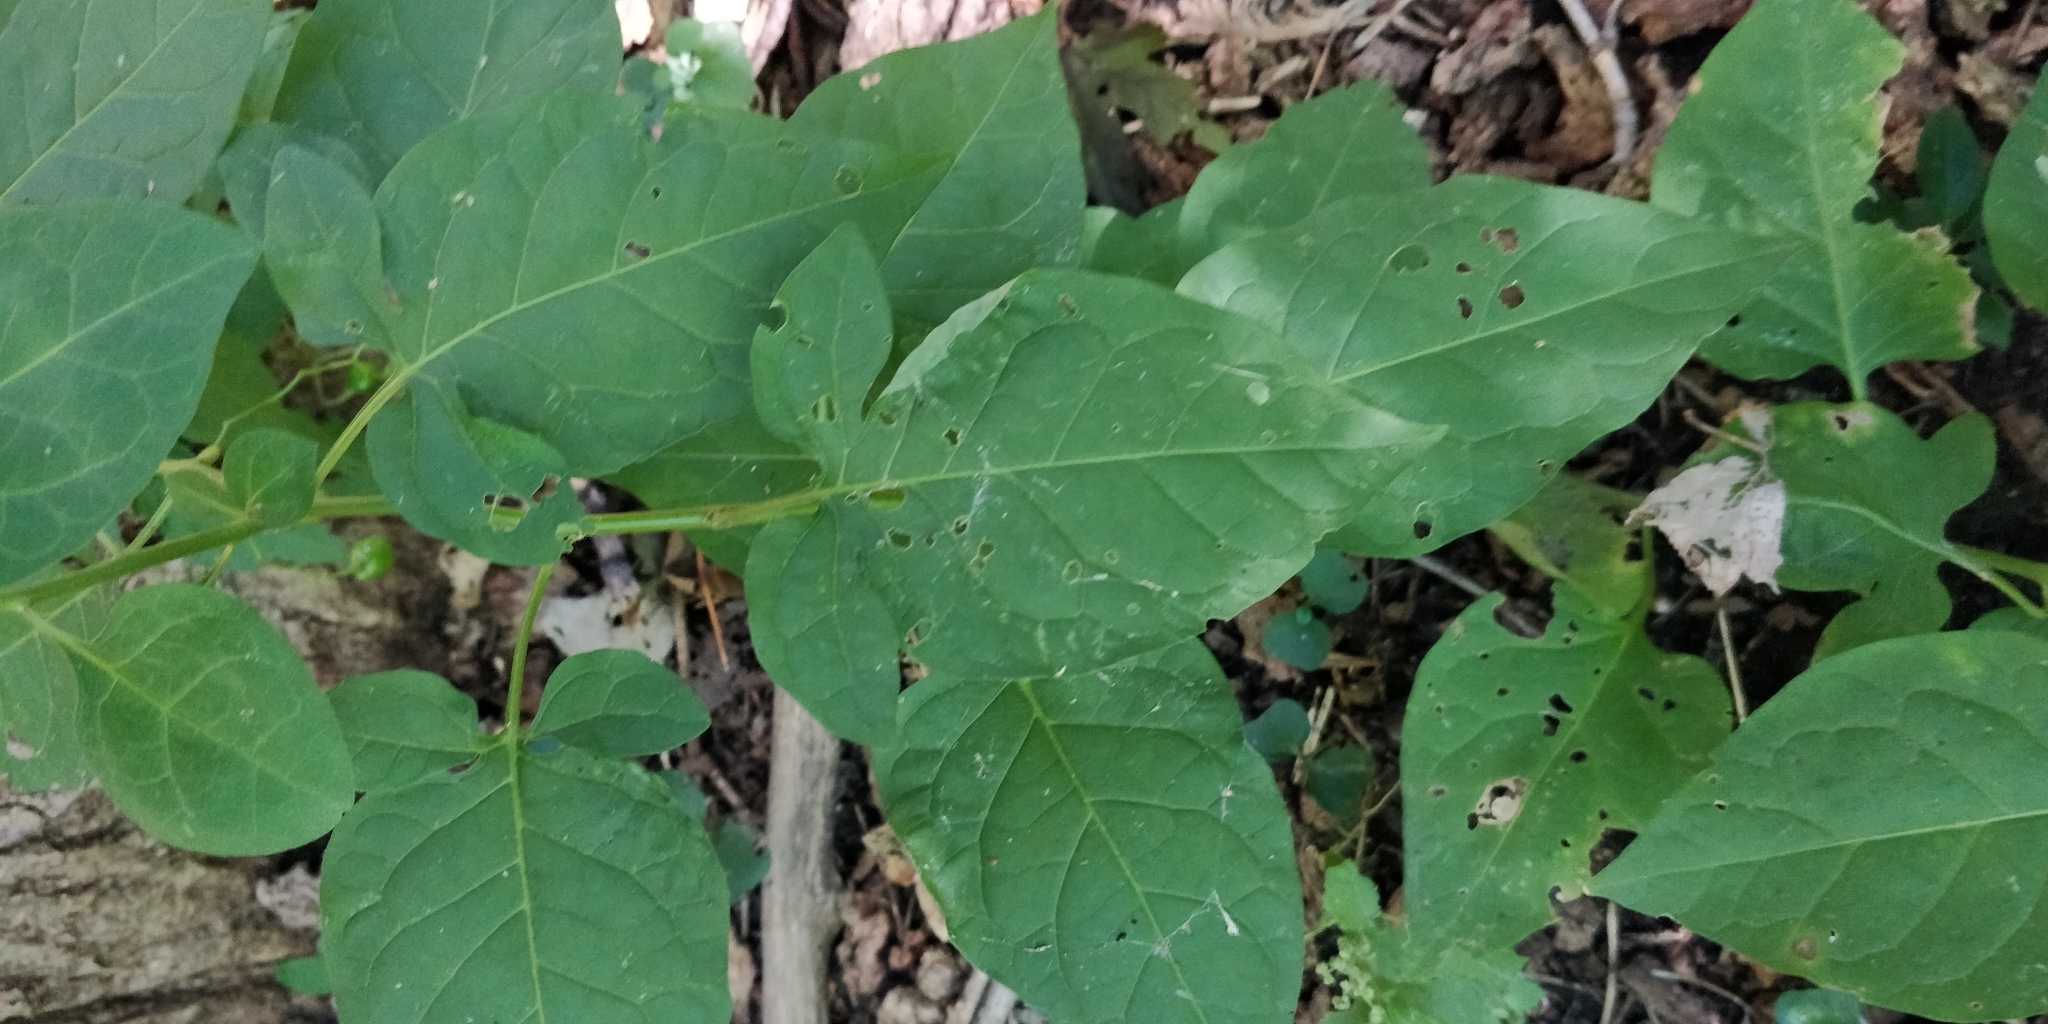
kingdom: Plantae
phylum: Tracheophyta
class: Magnoliopsida
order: Solanales
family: Solanaceae
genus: Solanum
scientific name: Solanum dulcamara
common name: Climbing nightshade
